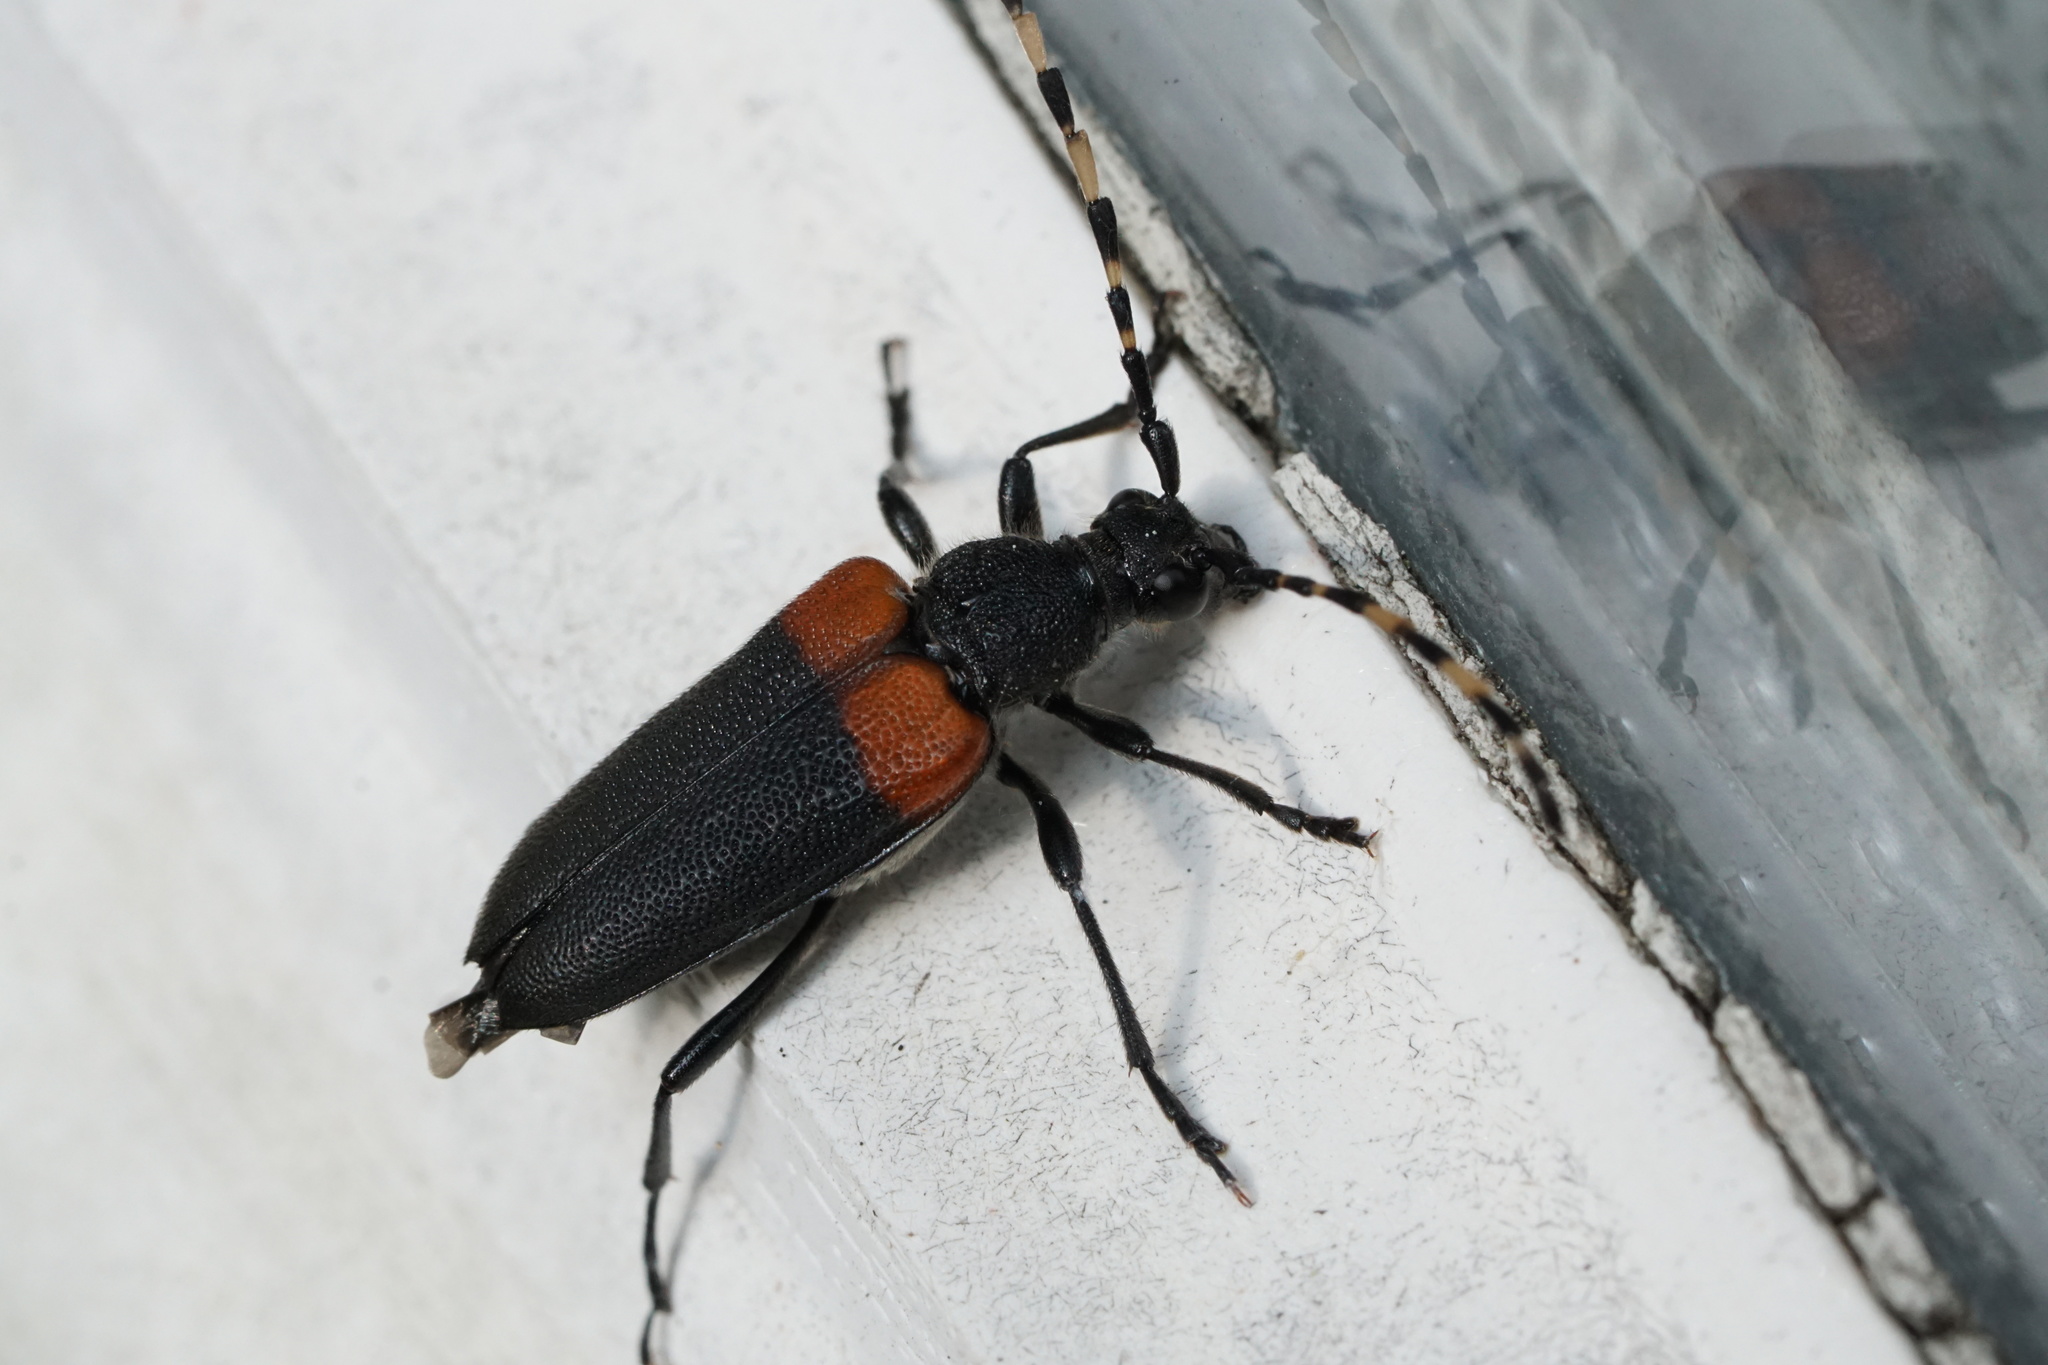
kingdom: Animalia
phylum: Arthropoda
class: Insecta
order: Coleoptera
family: Cerambycidae
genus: Stictoleptura
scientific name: Stictoleptura canadensis
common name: Red-shouldered pine borer
